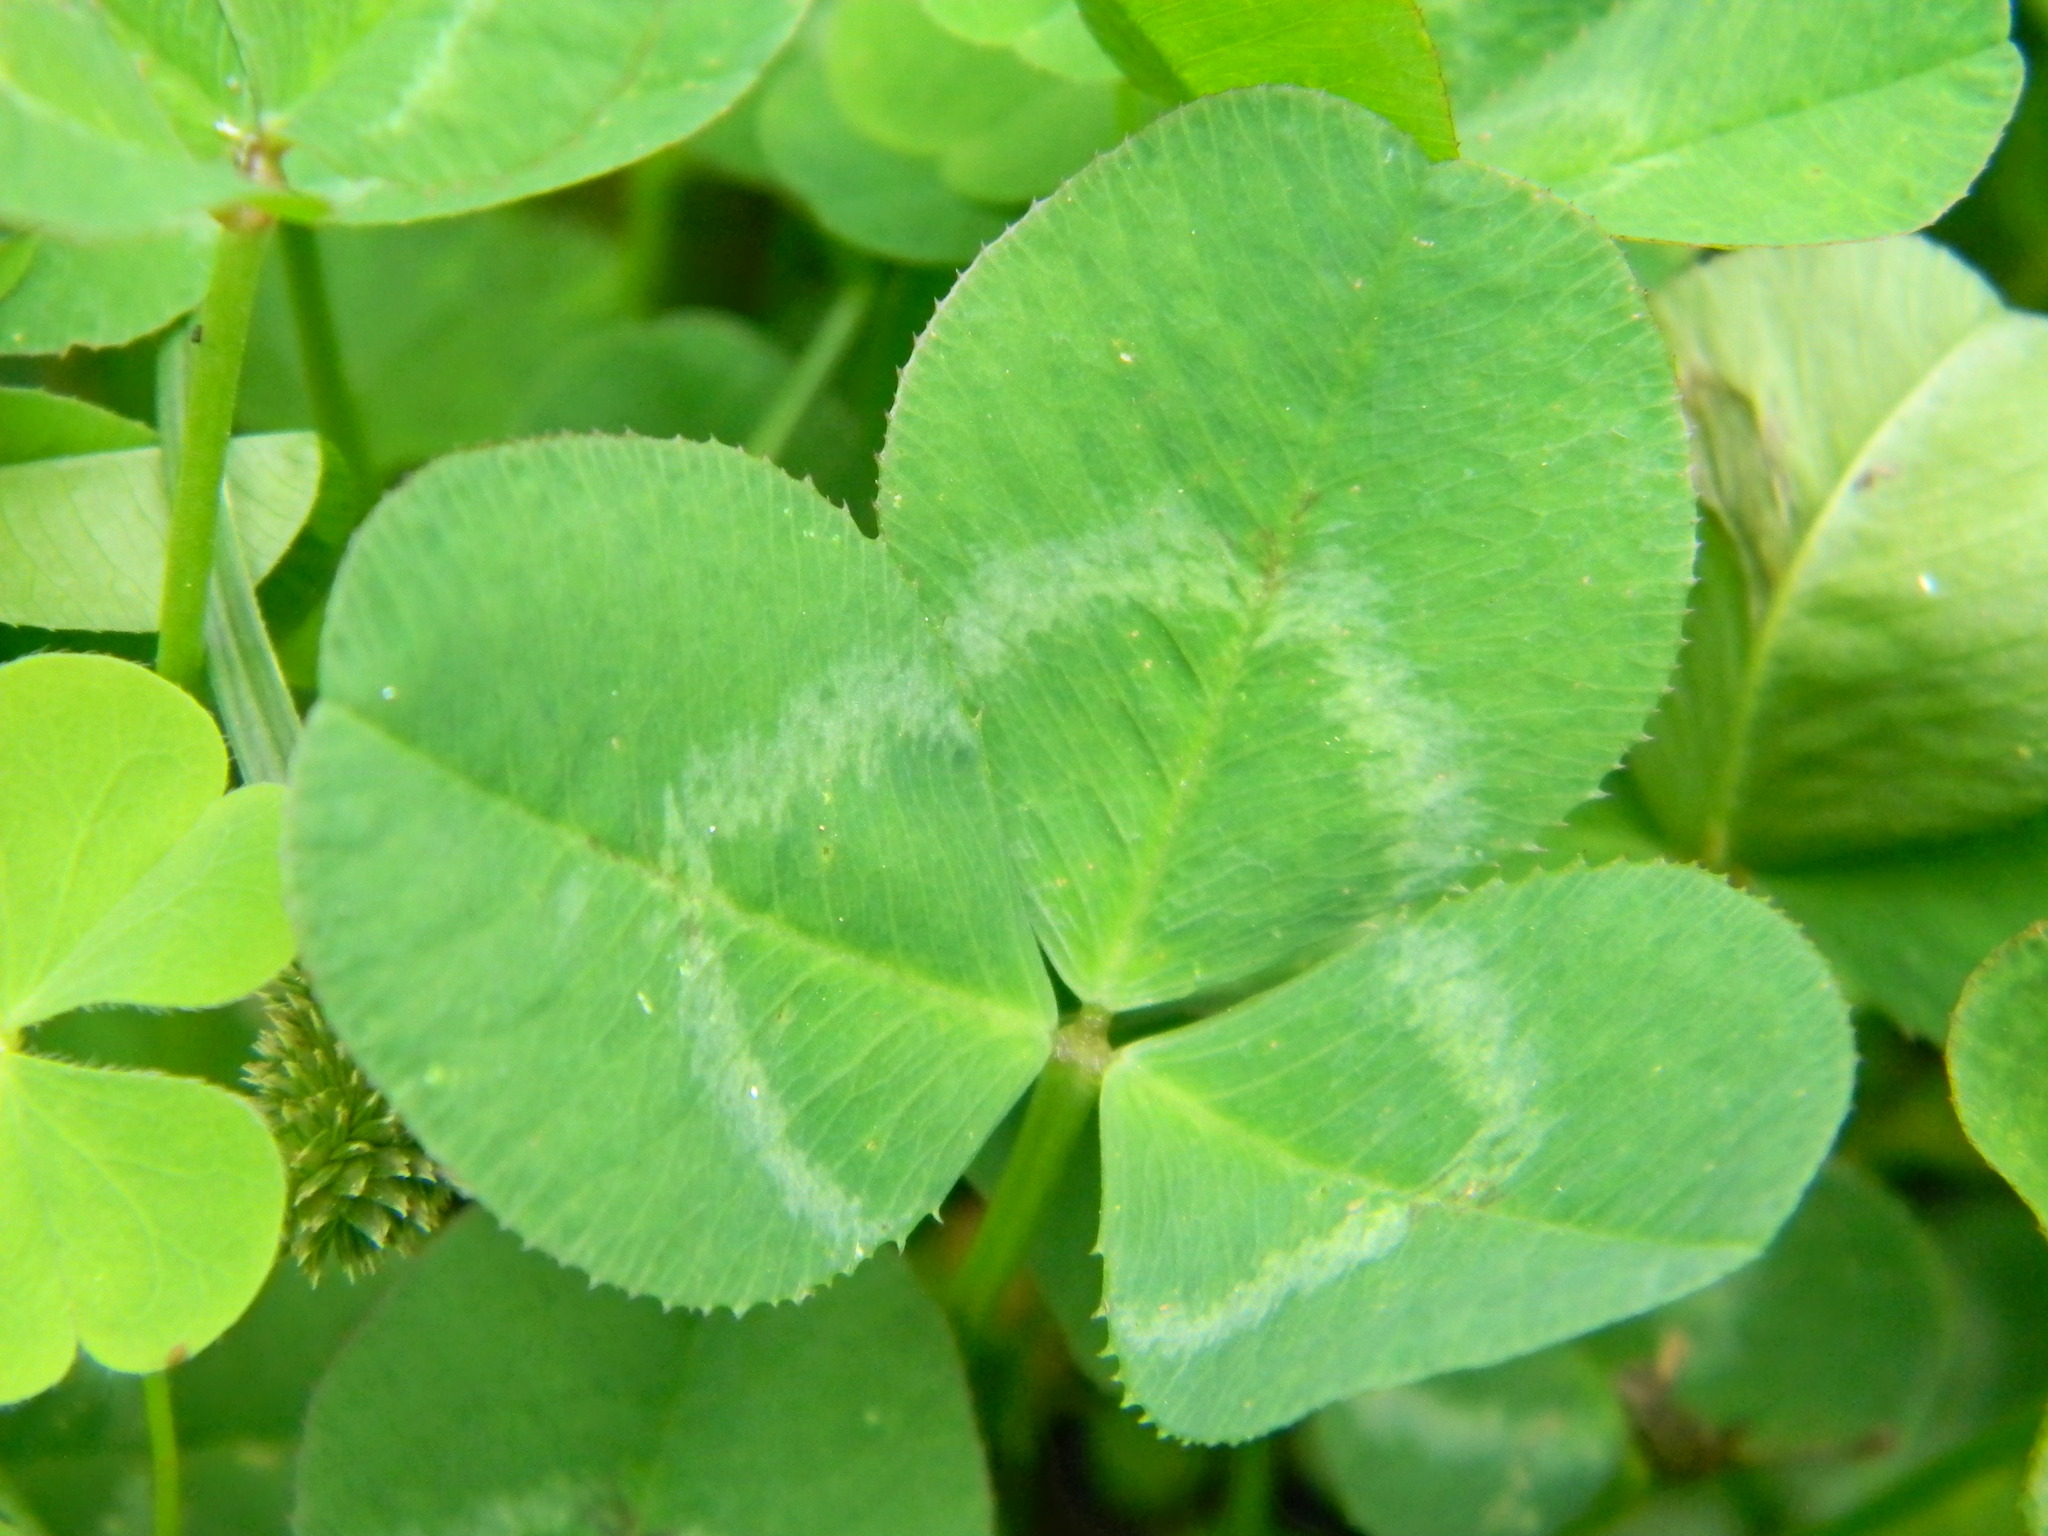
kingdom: Plantae
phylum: Tracheophyta
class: Magnoliopsida
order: Fabales
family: Fabaceae
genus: Trifolium
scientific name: Trifolium repens
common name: White clover
